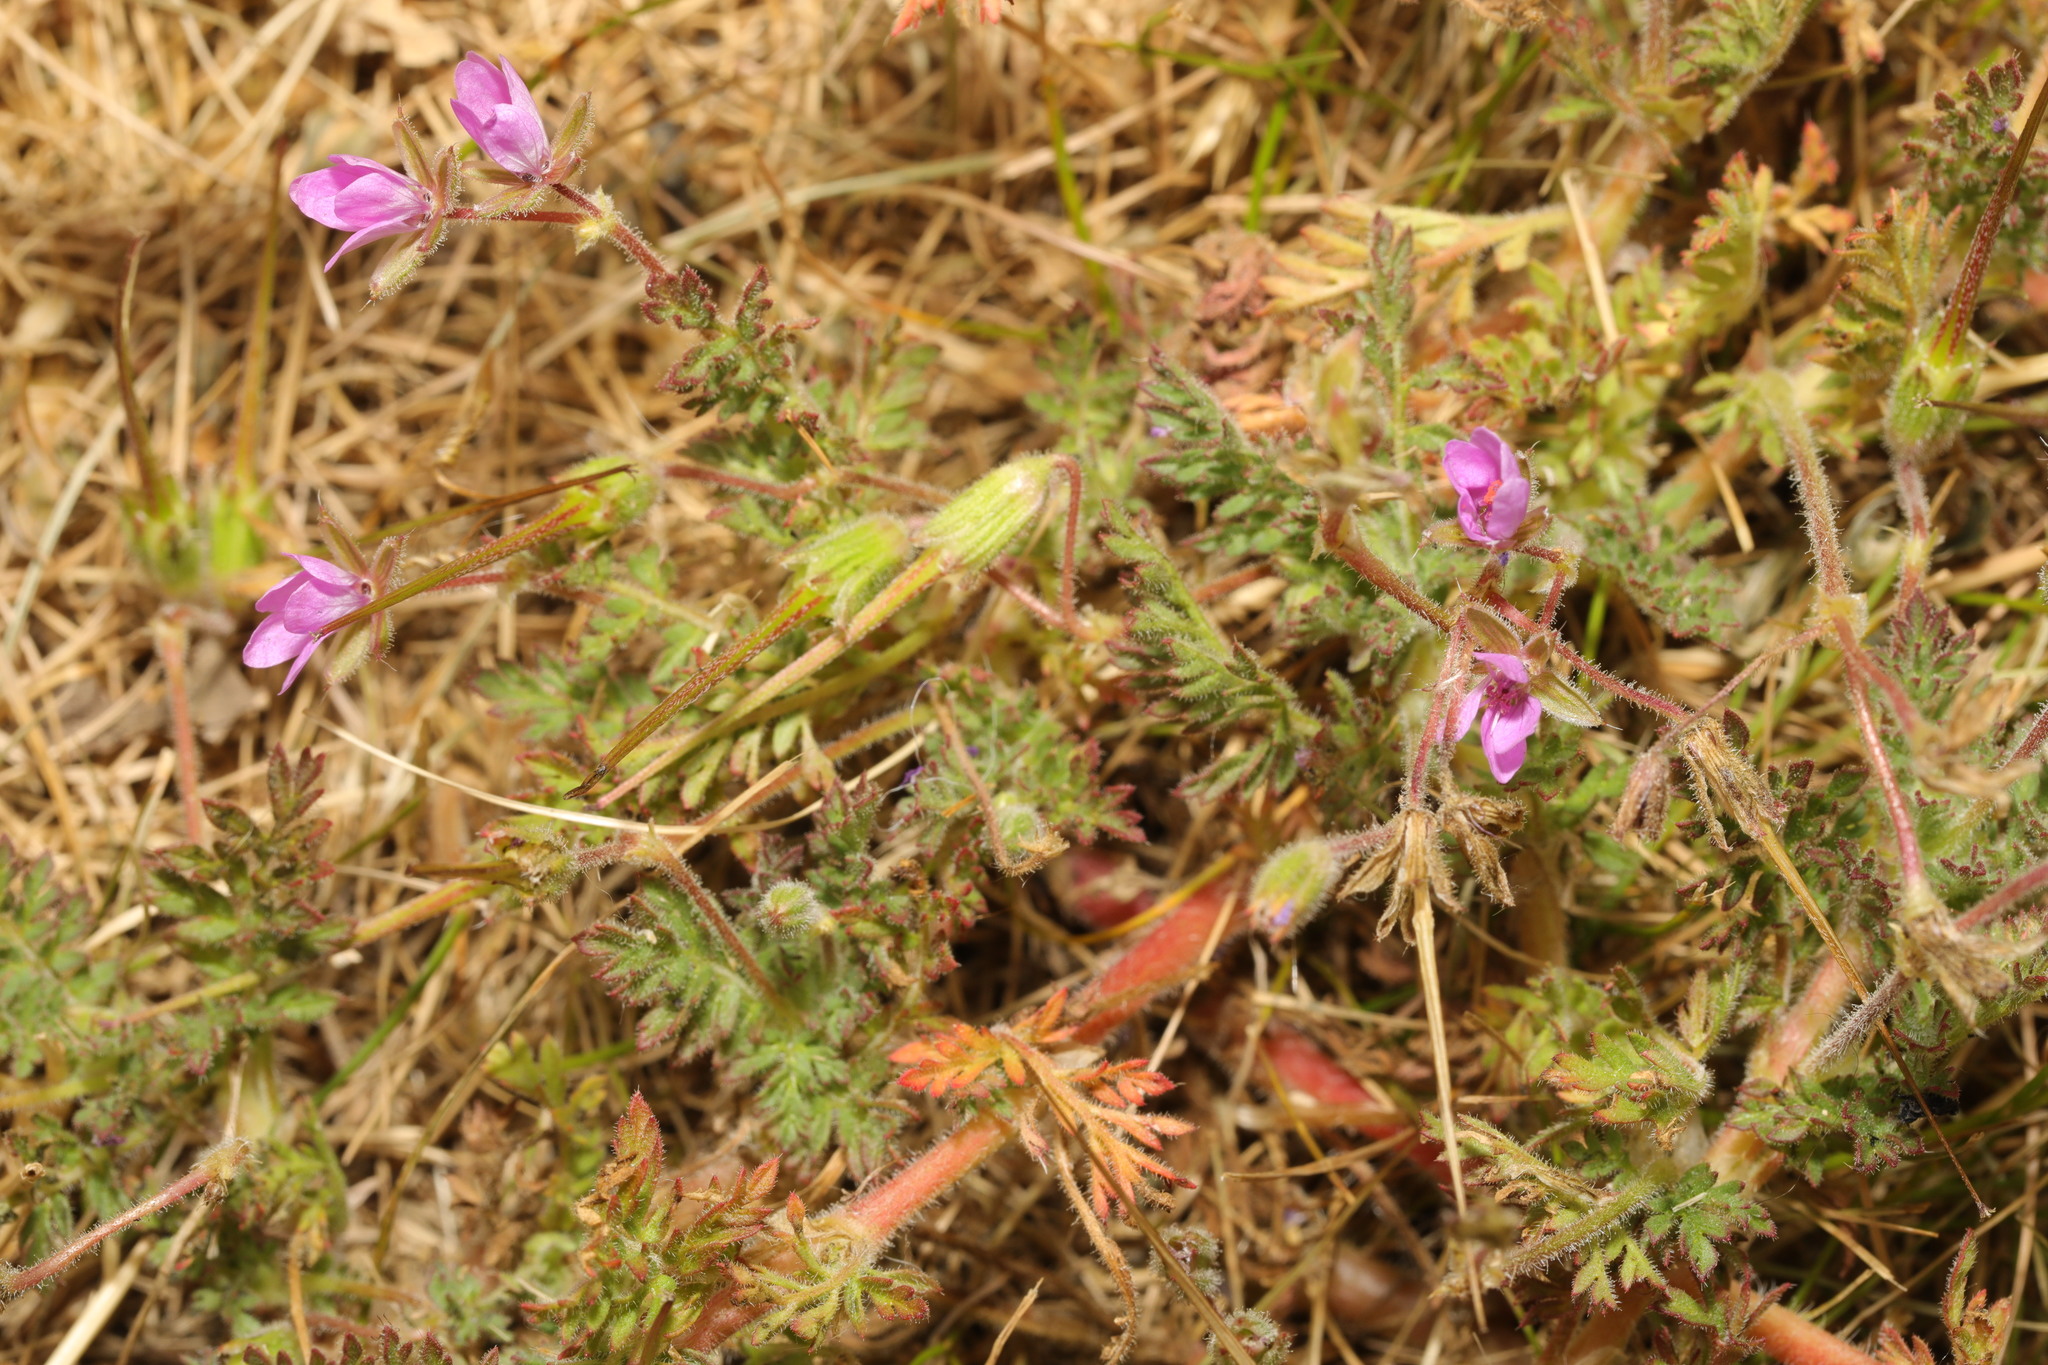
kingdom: Plantae
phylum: Tracheophyta
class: Magnoliopsida
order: Geraniales
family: Geraniaceae
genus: Erodium
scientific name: Erodium cicutarium
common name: Common stork's-bill
